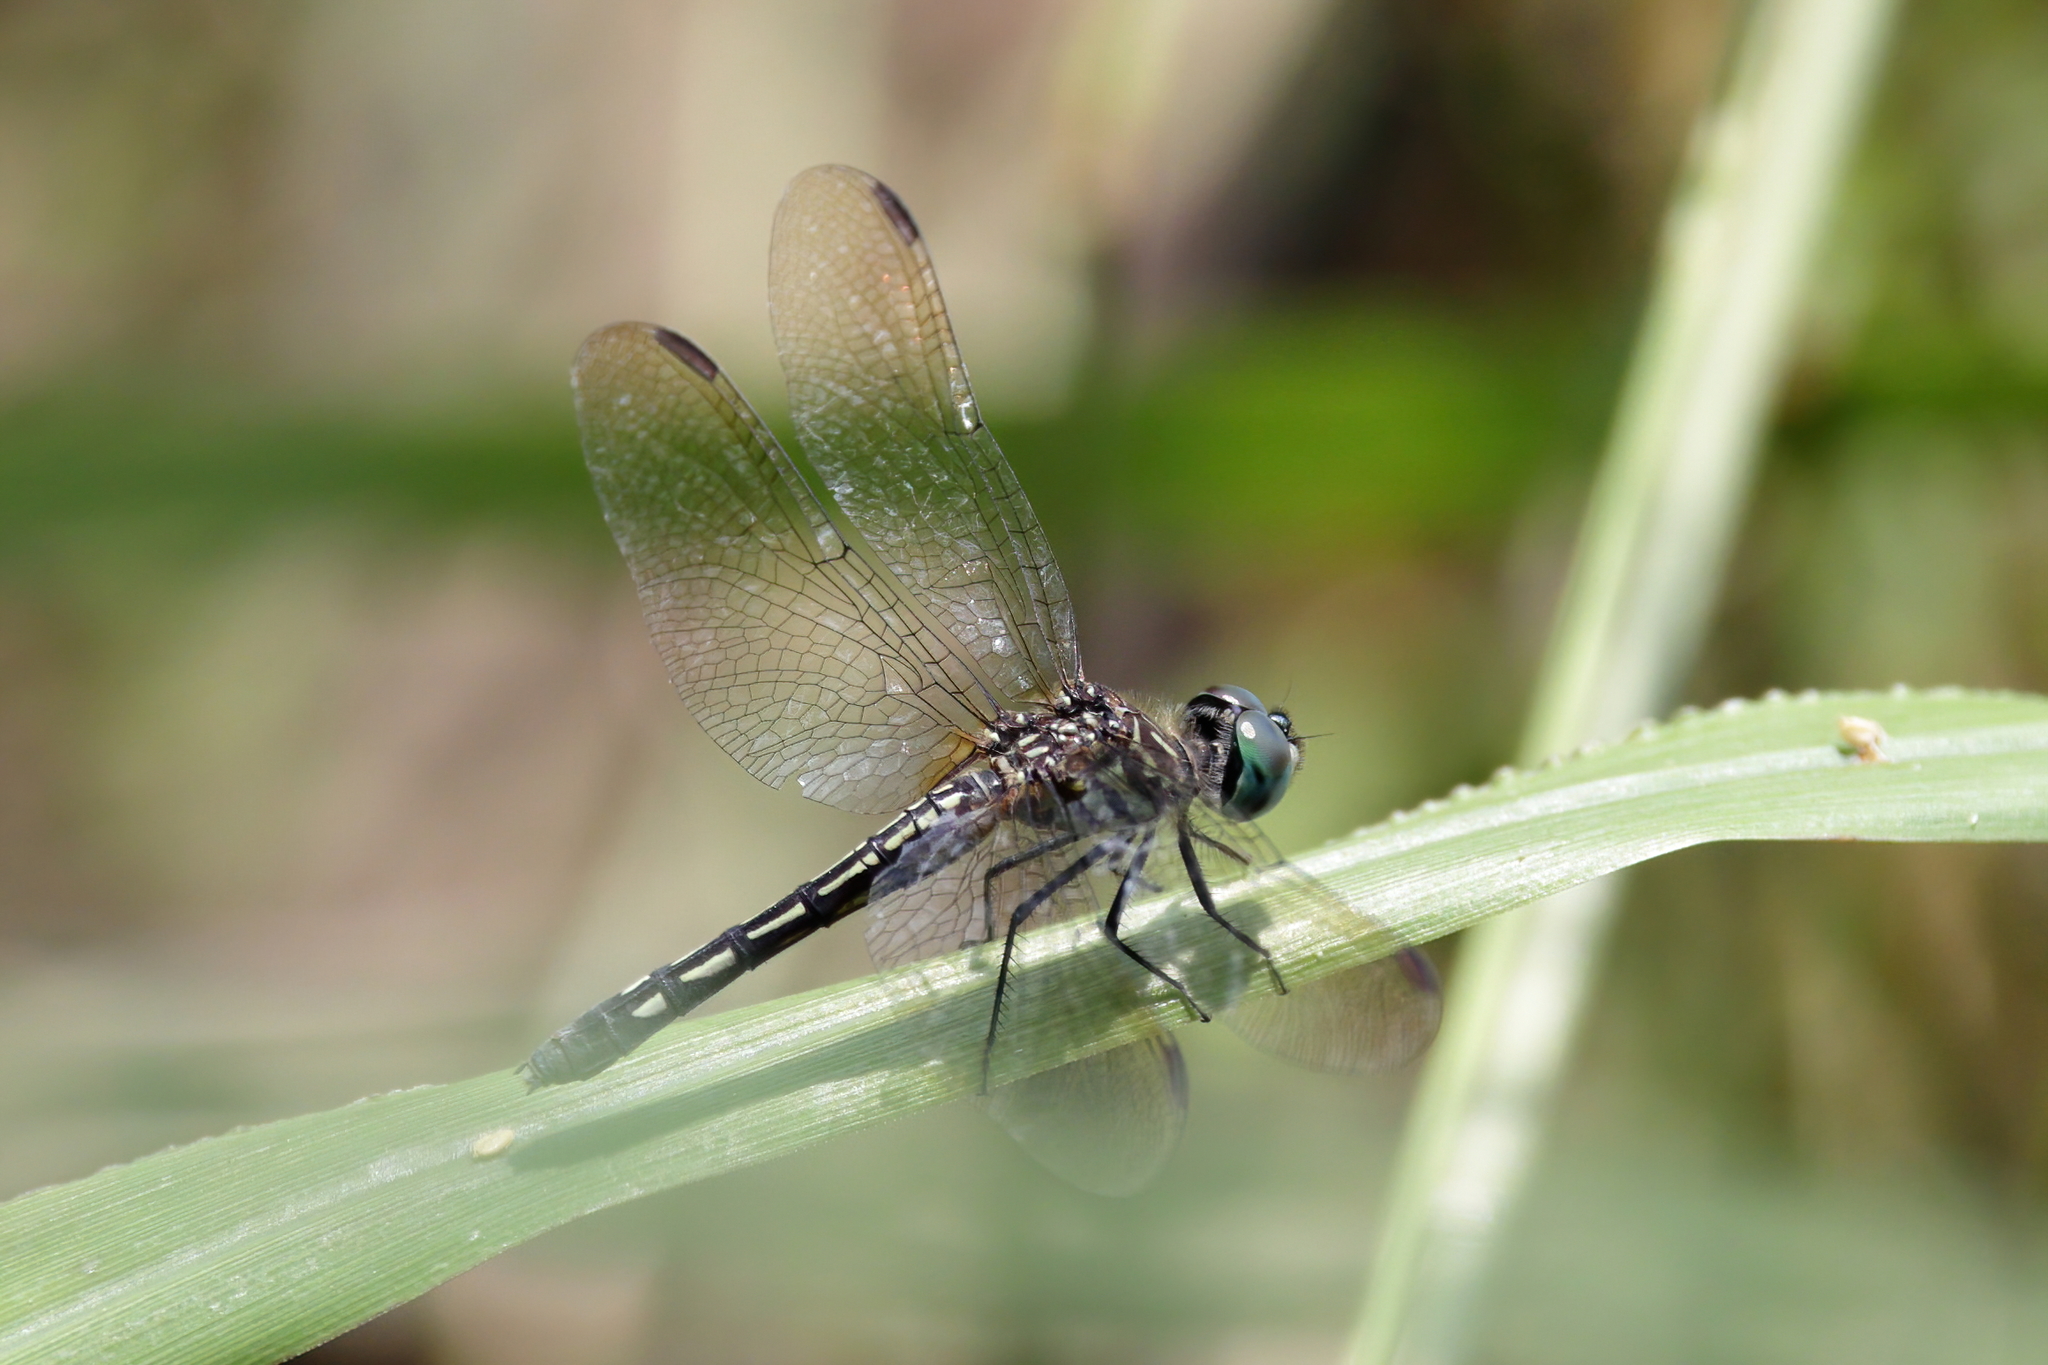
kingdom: Animalia
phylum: Arthropoda
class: Insecta
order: Odonata
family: Libellulidae
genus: Pachydiplax
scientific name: Pachydiplax longipennis
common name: Blue dasher
